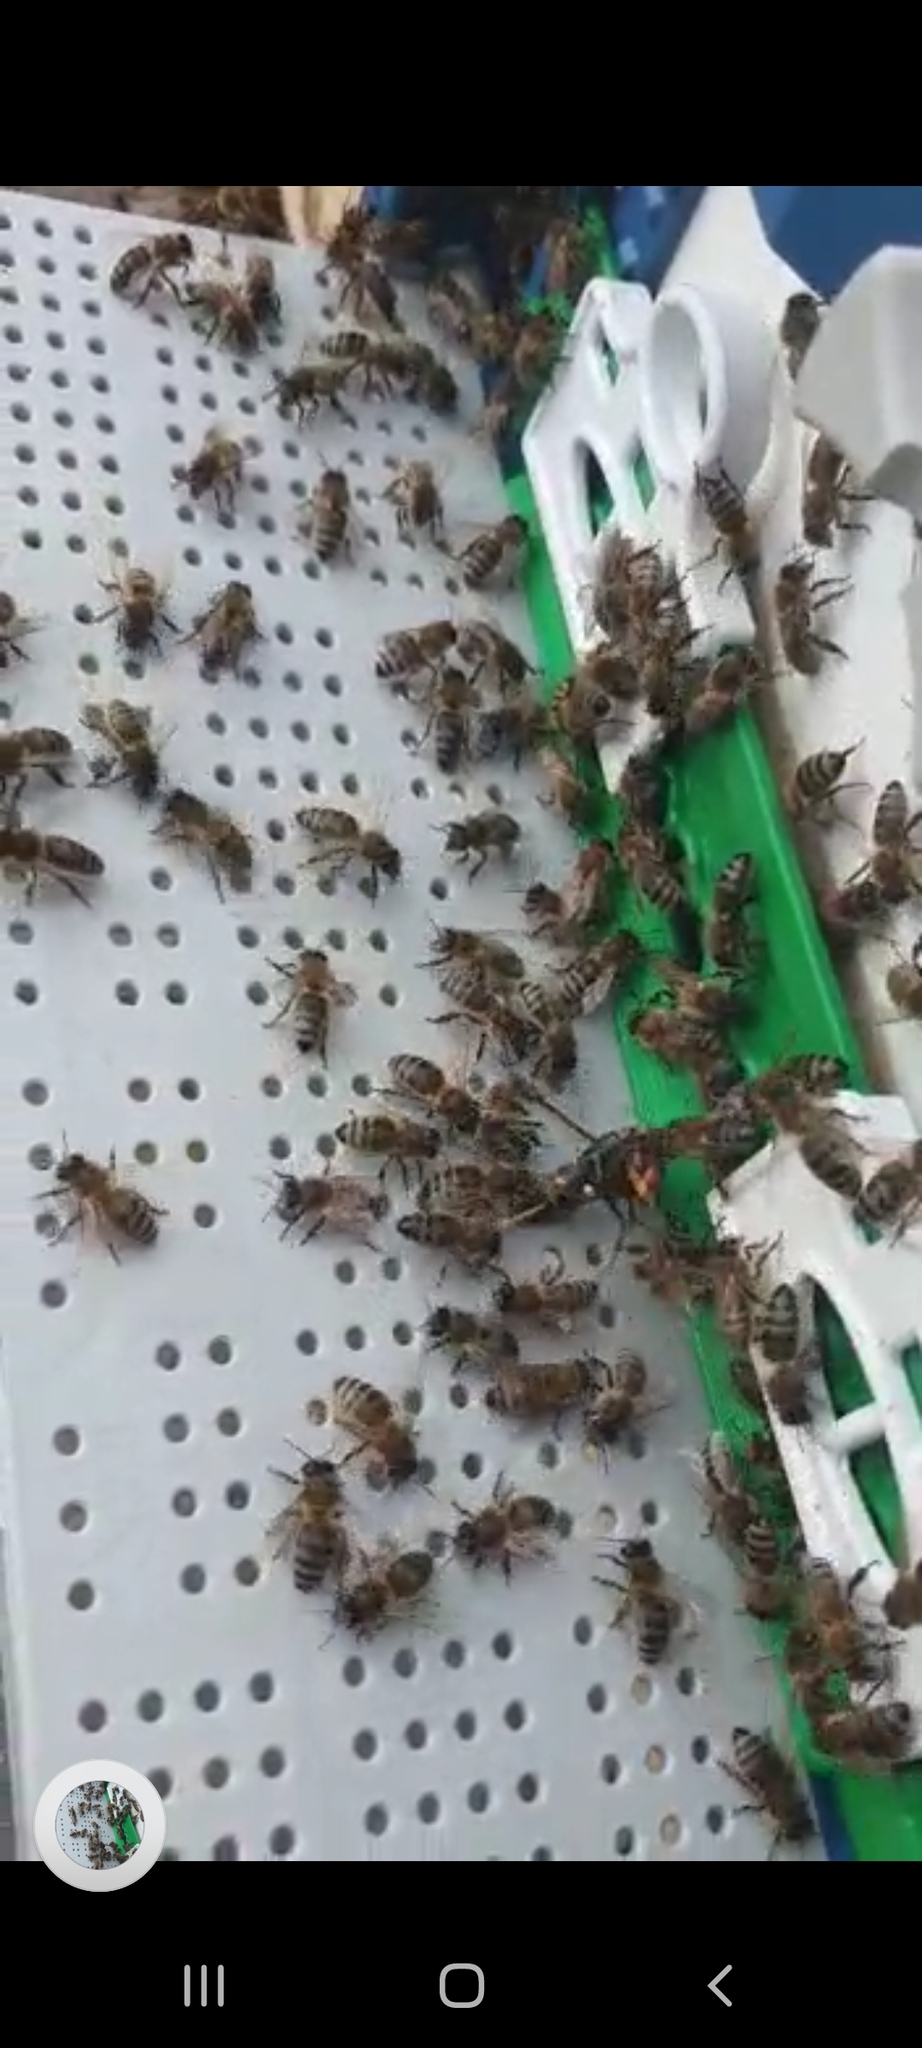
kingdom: Animalia
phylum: Arthropoda
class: Insecta
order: Hymenoptera
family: Vespidae
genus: Vespa
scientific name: Vespa velutina
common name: Asian hornet
